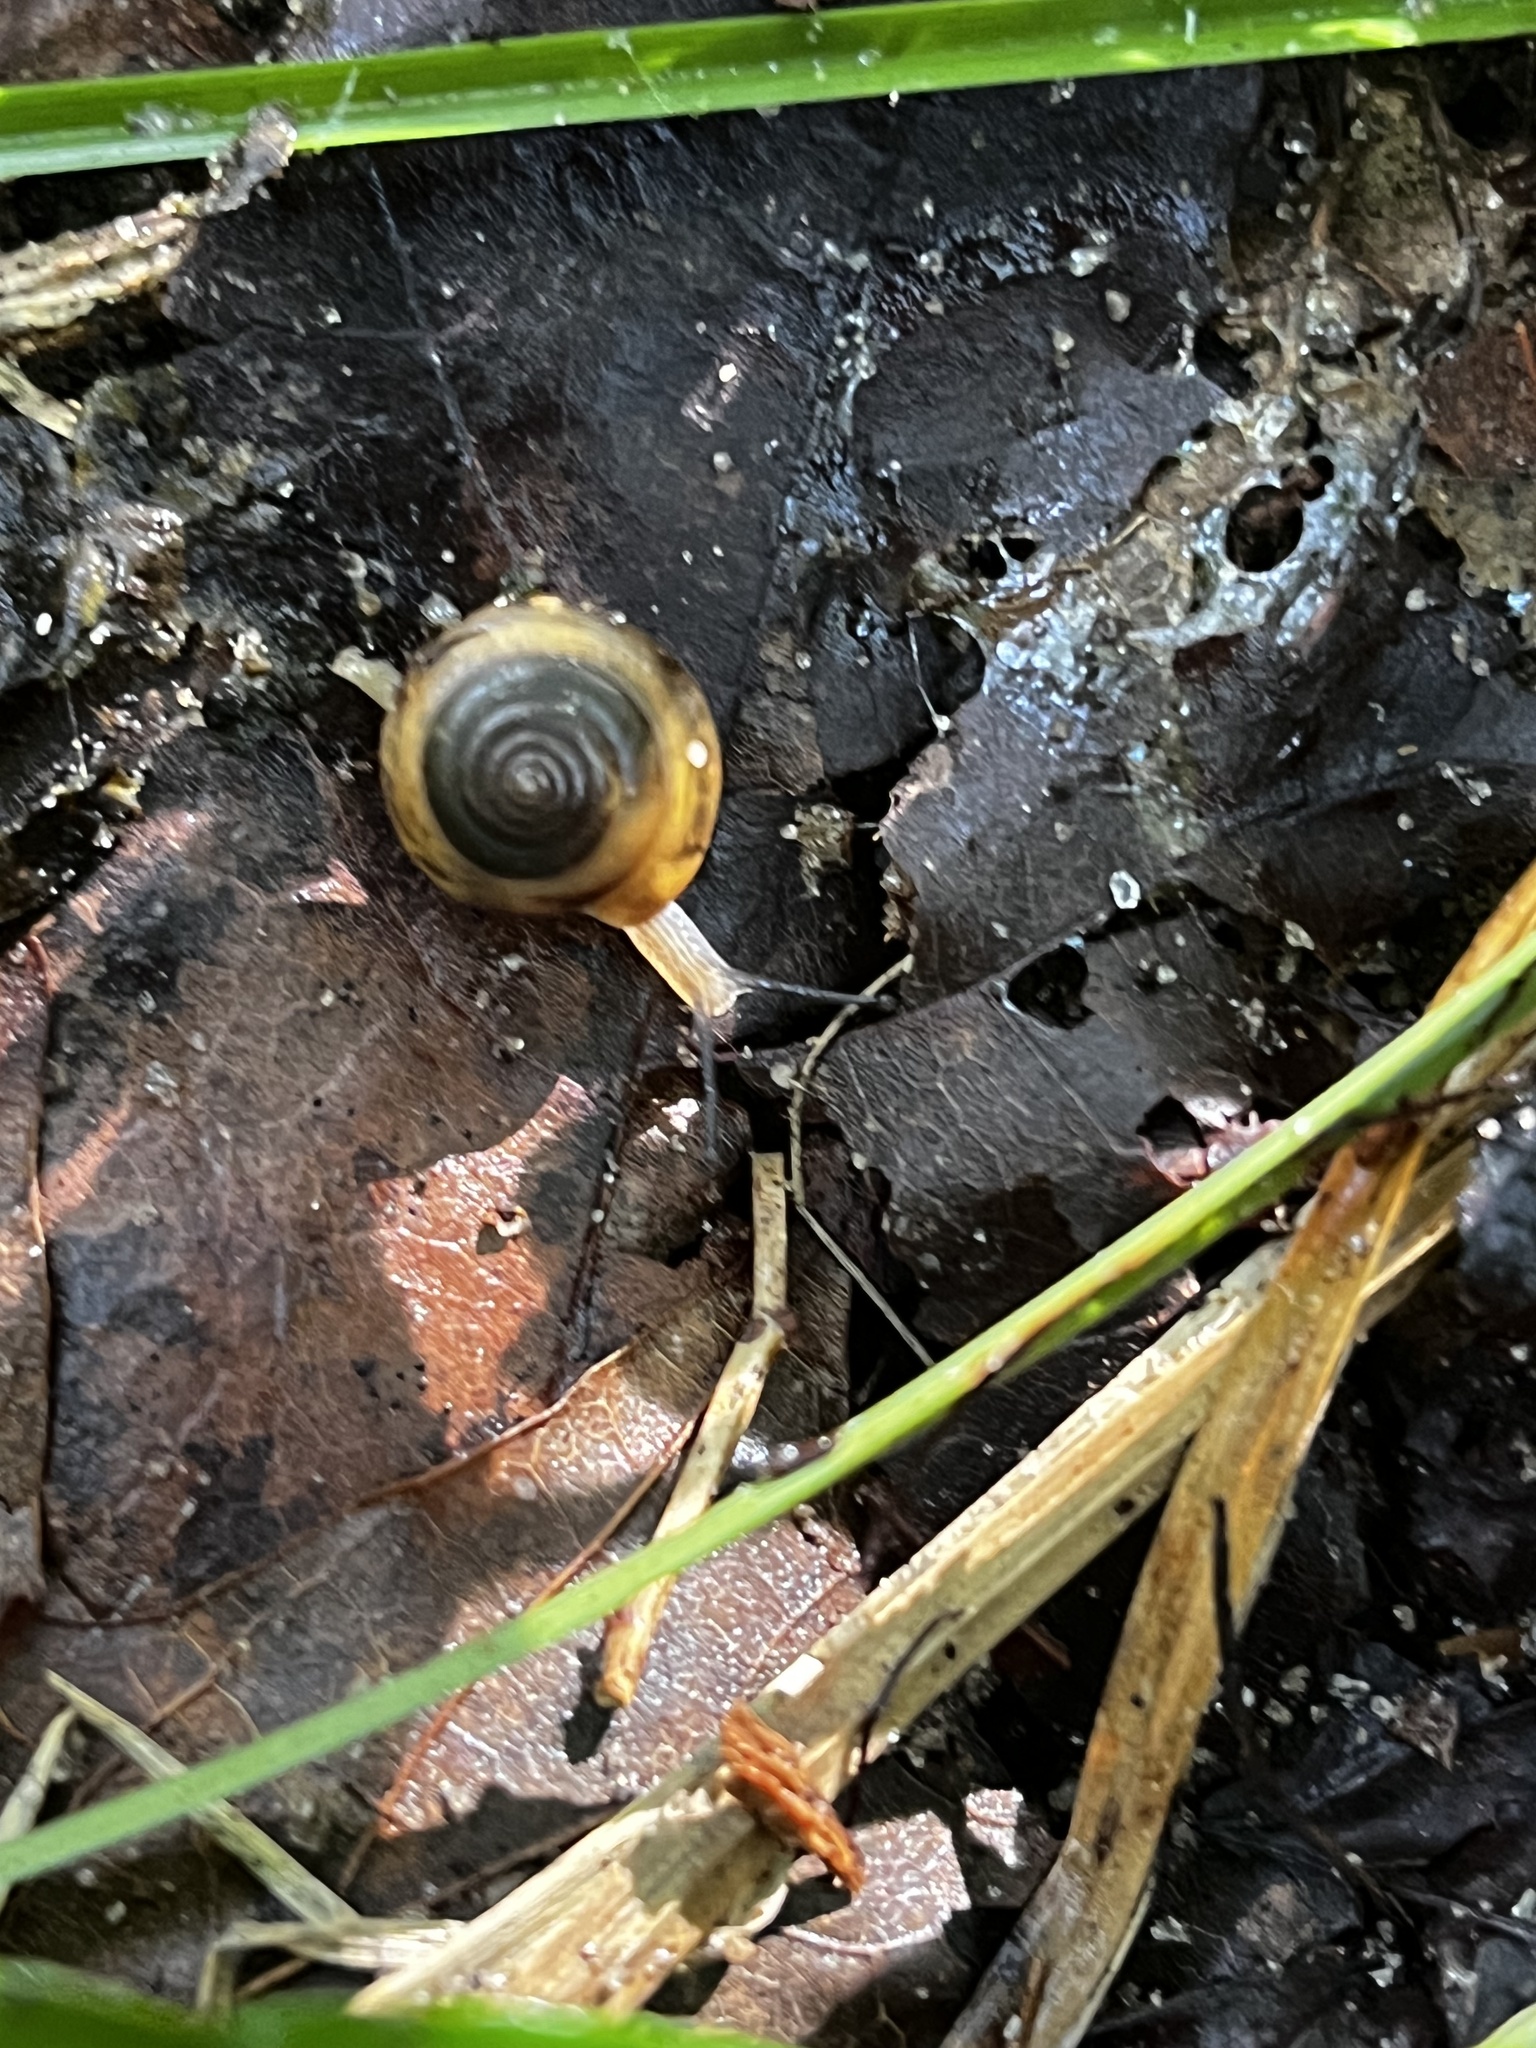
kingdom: Animalia
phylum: Mollusca
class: Gastropoda
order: Stylommatophora
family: Camaenidae
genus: Bradybaena
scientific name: Bradybaena similaris
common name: Asian trampsnail
